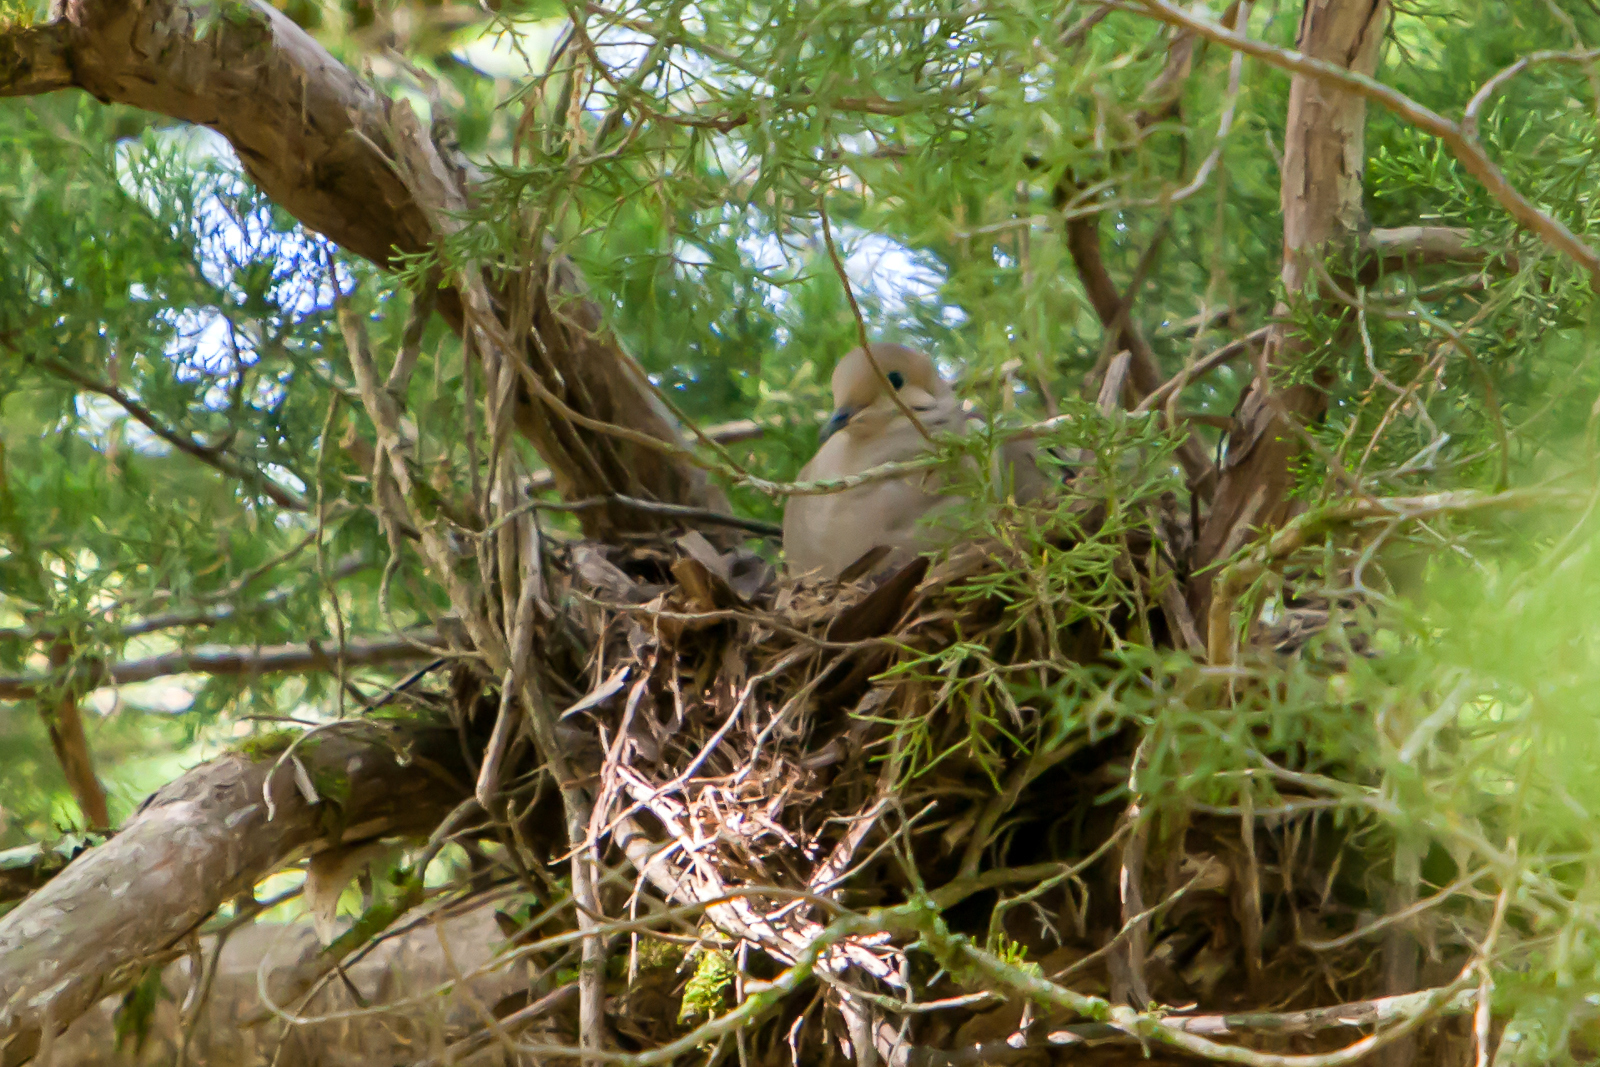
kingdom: Animalia
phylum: Chordata
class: Aves
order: Columbiformes
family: Columbidae
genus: Zenaida
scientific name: Zenaida macroura
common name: Mourning dove
